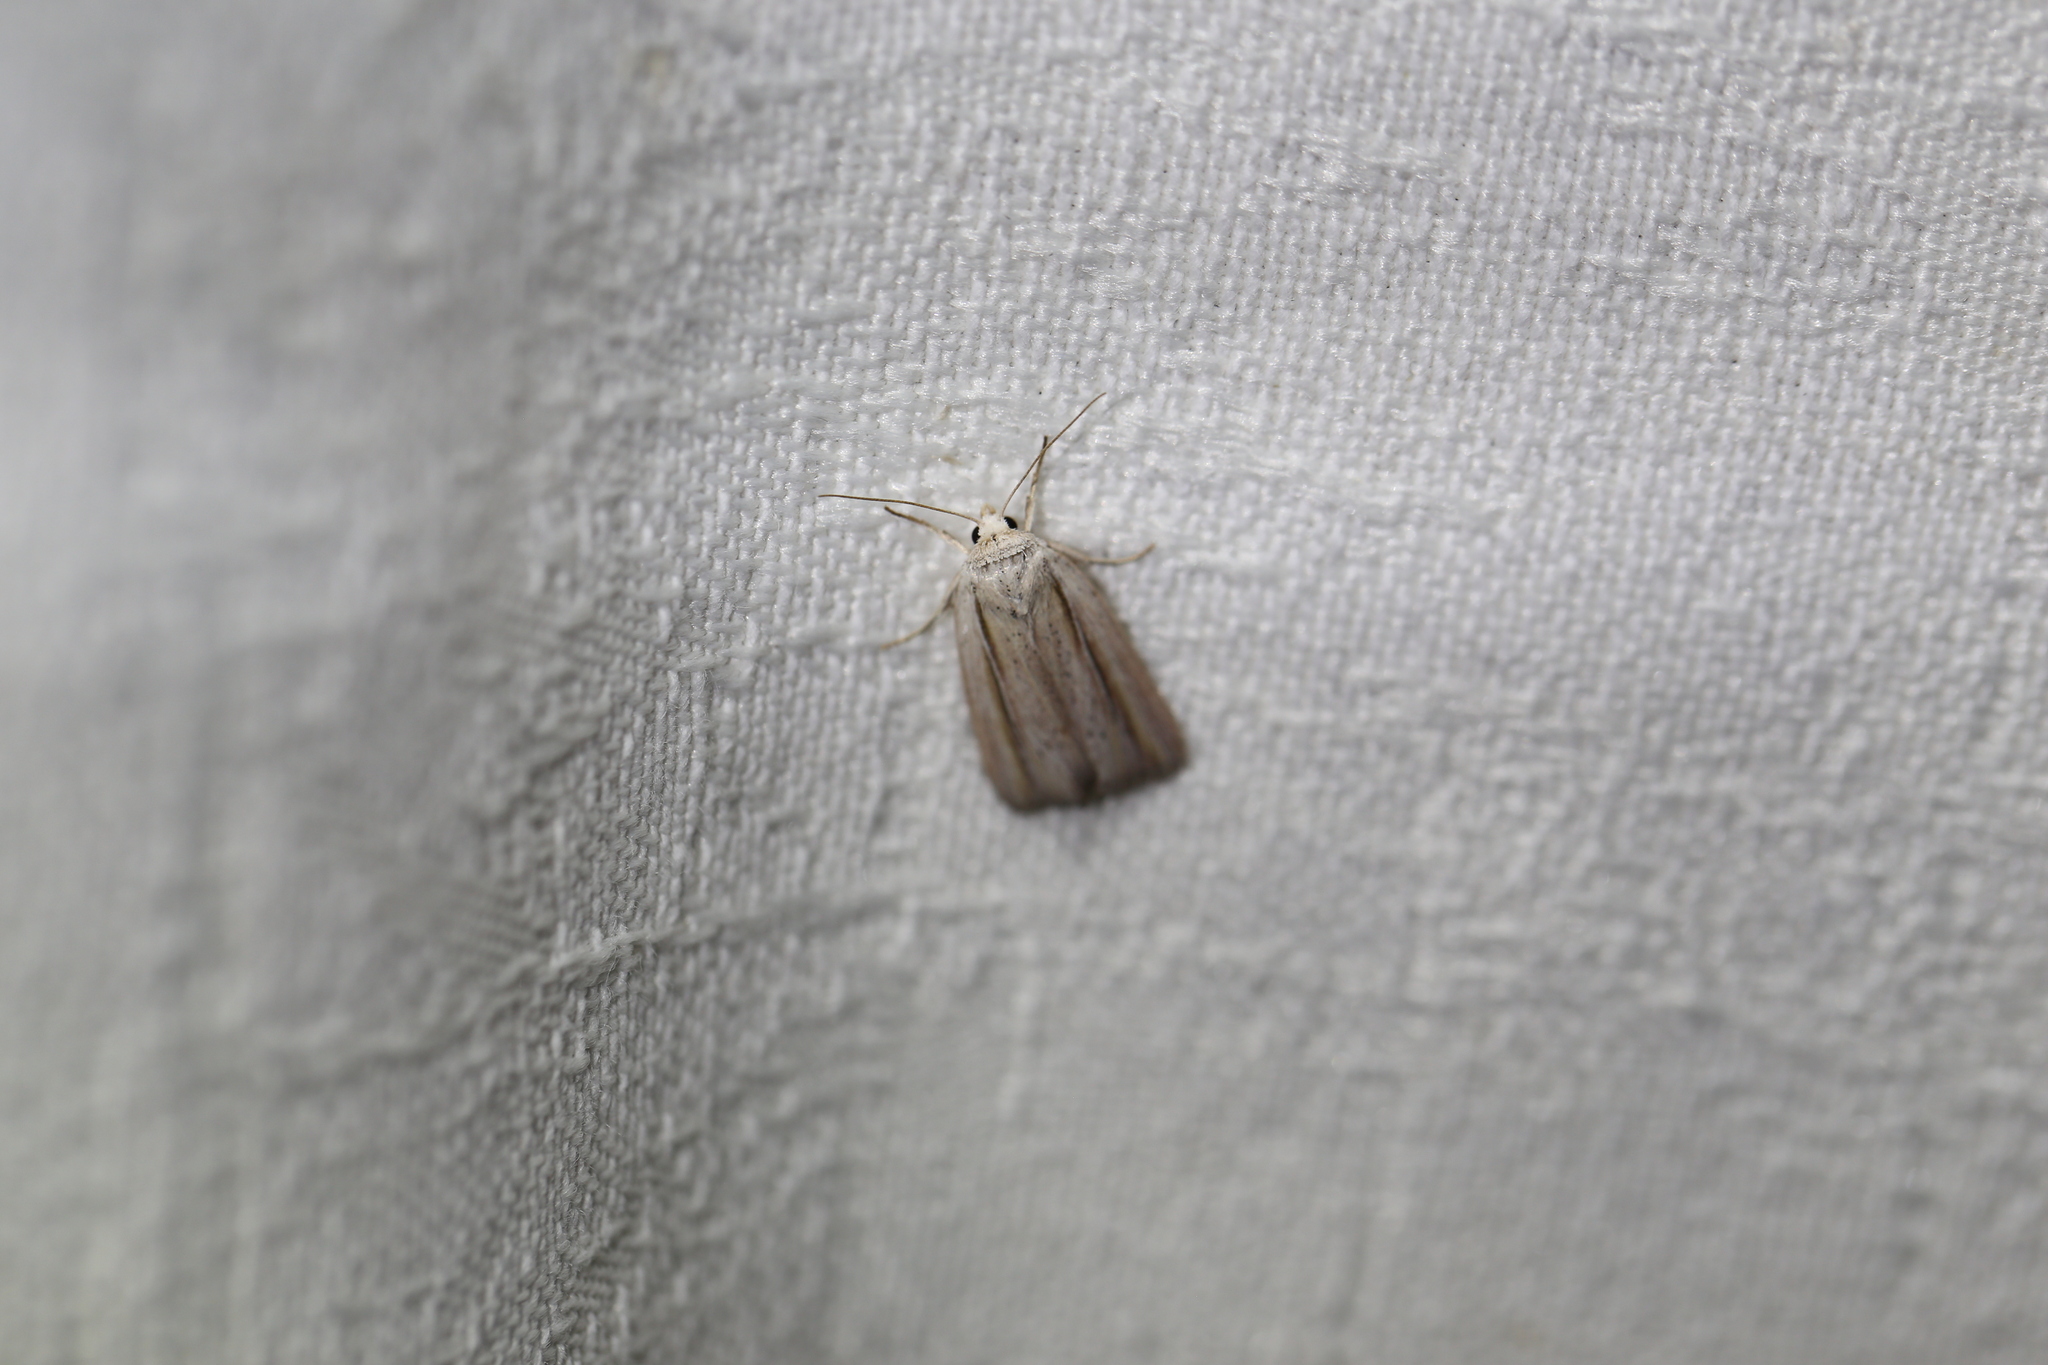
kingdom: Animalia
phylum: Arthropoda
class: Insecta
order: Lepidoptera
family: Noctuidae
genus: Leucania
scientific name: Leucania diatrecta
